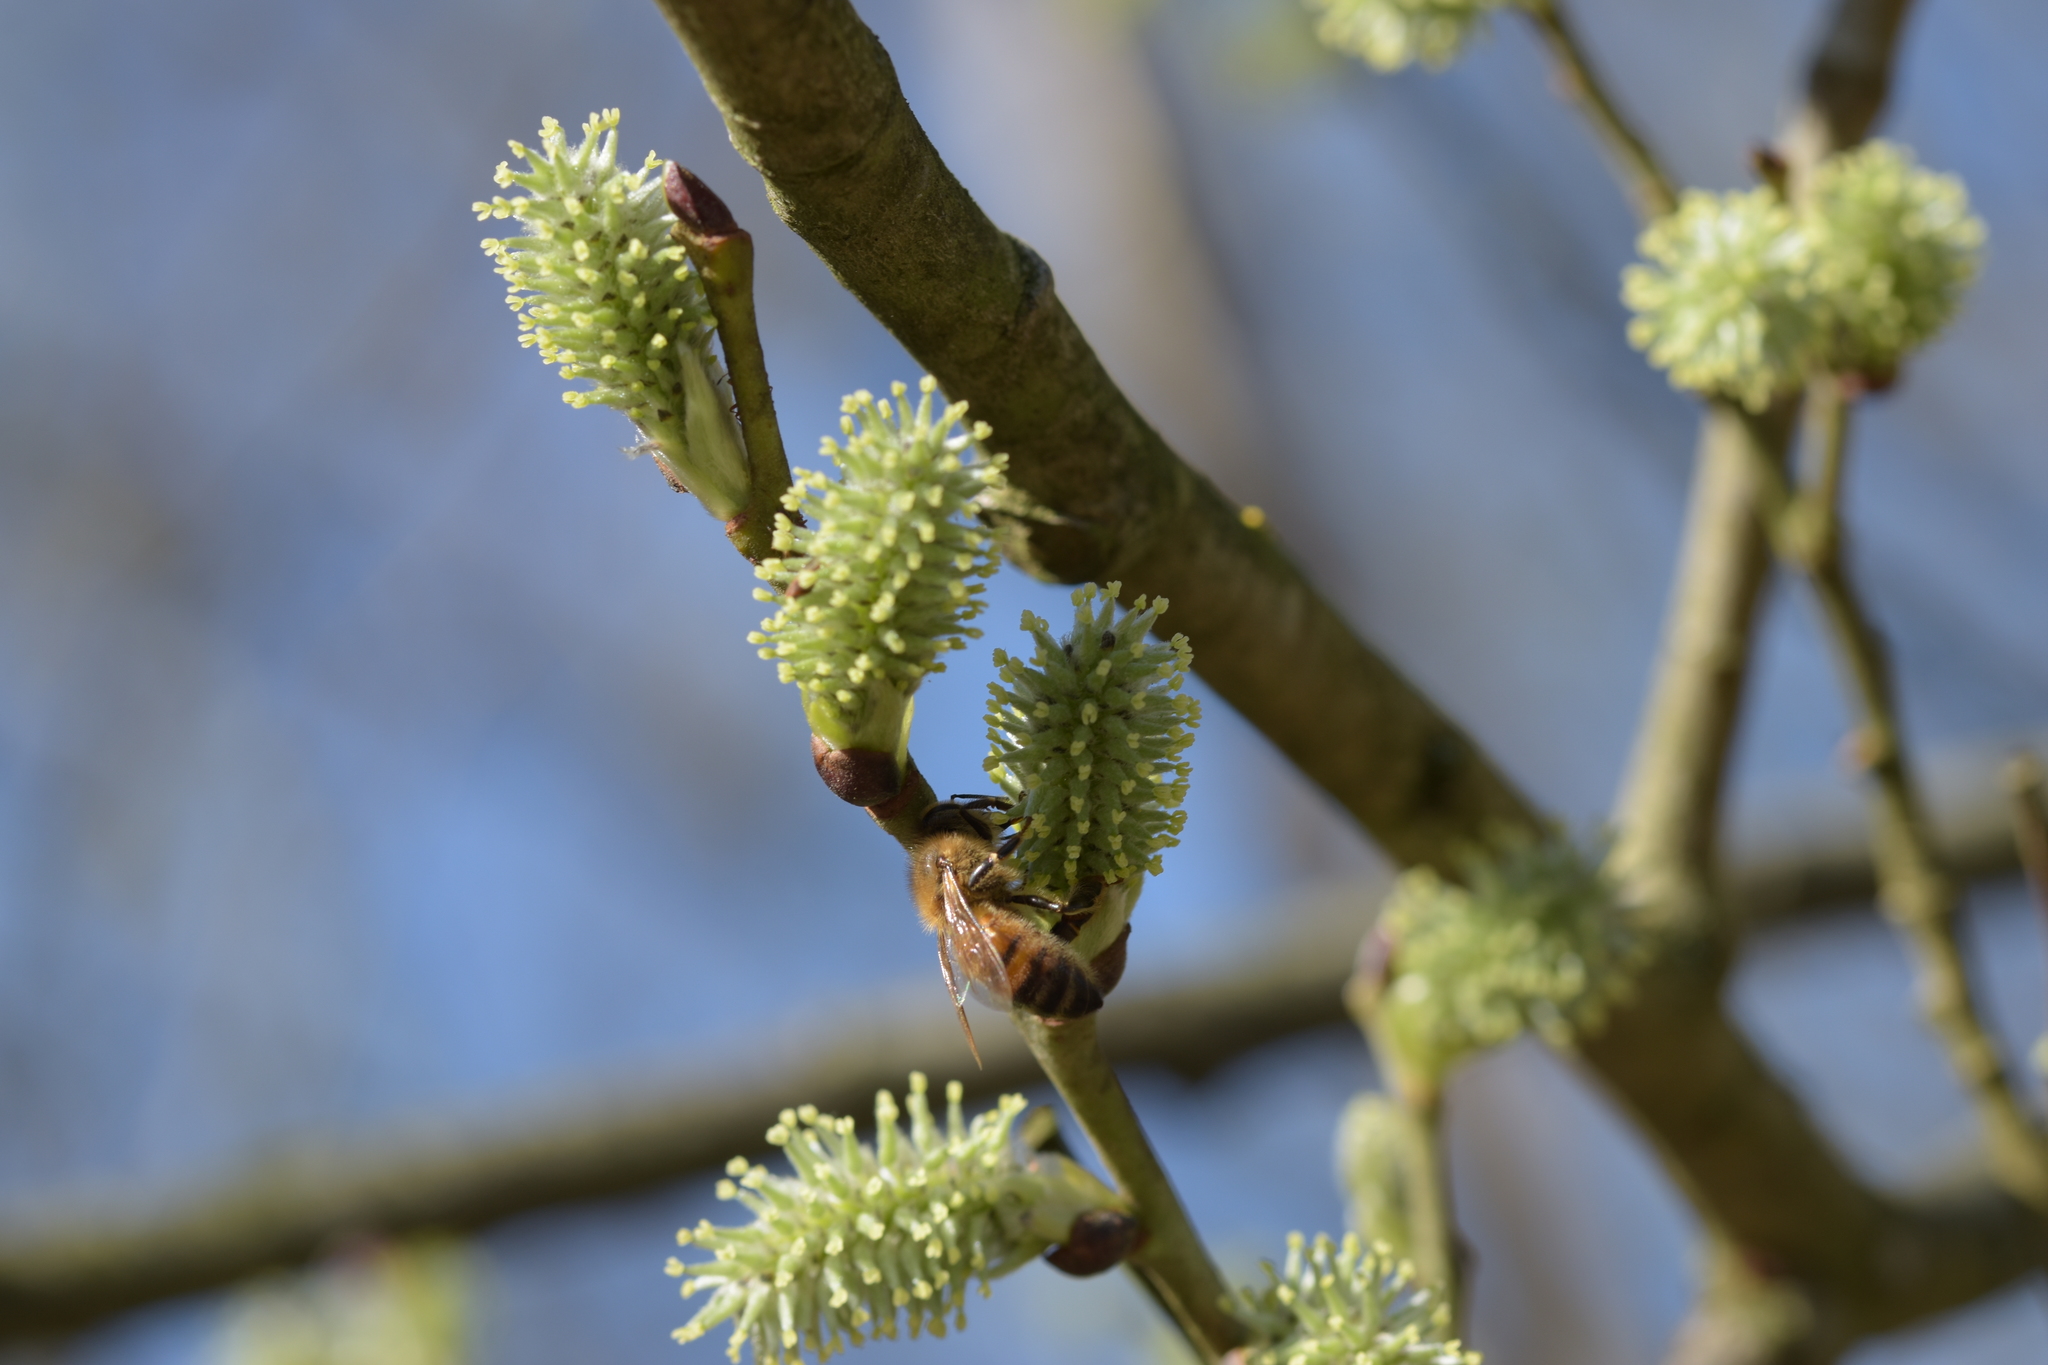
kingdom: Animalia
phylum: Arthropoda
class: Insecta
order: Hymenoptera
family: Apidae
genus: Apis
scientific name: Apis mellifera
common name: Honey bee
